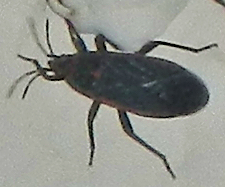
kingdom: Animalia
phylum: Arthropoda
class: Insecta
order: Hemiptera
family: Lygaeidae
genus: Melacoryphus
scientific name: Melacoryphus lateralis
